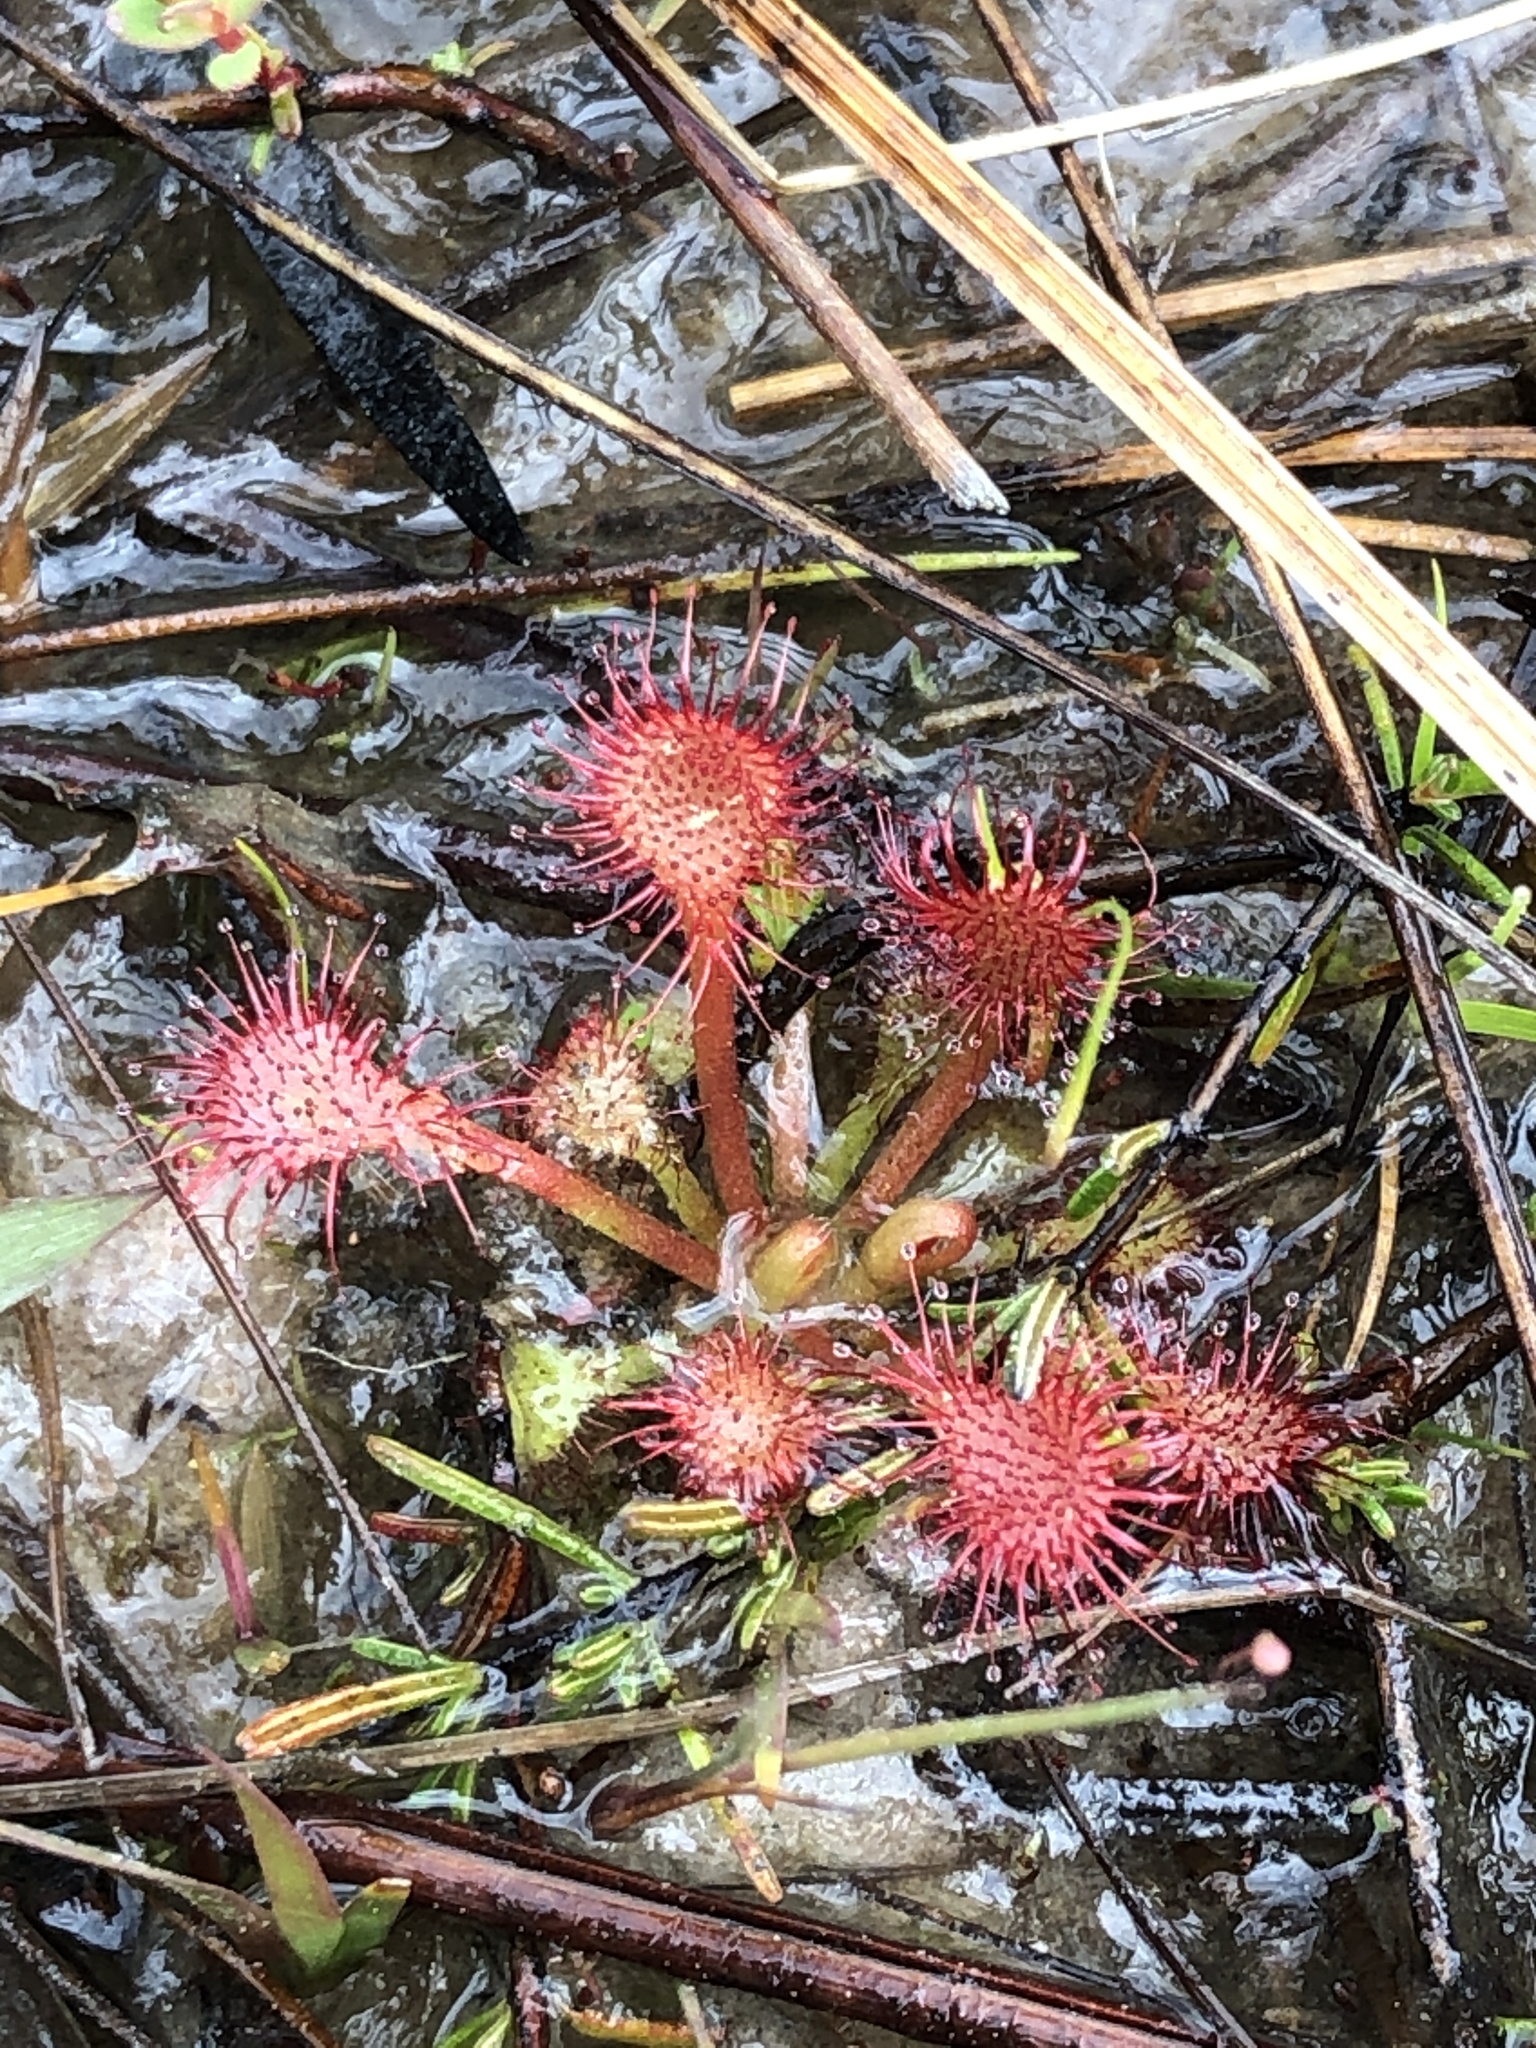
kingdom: Plantae
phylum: Tracheophyta
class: Magnoliopsida
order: Caryophyllales
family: Droseraceae
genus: Drosera
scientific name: Drosera capillaris
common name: Pink sundew
